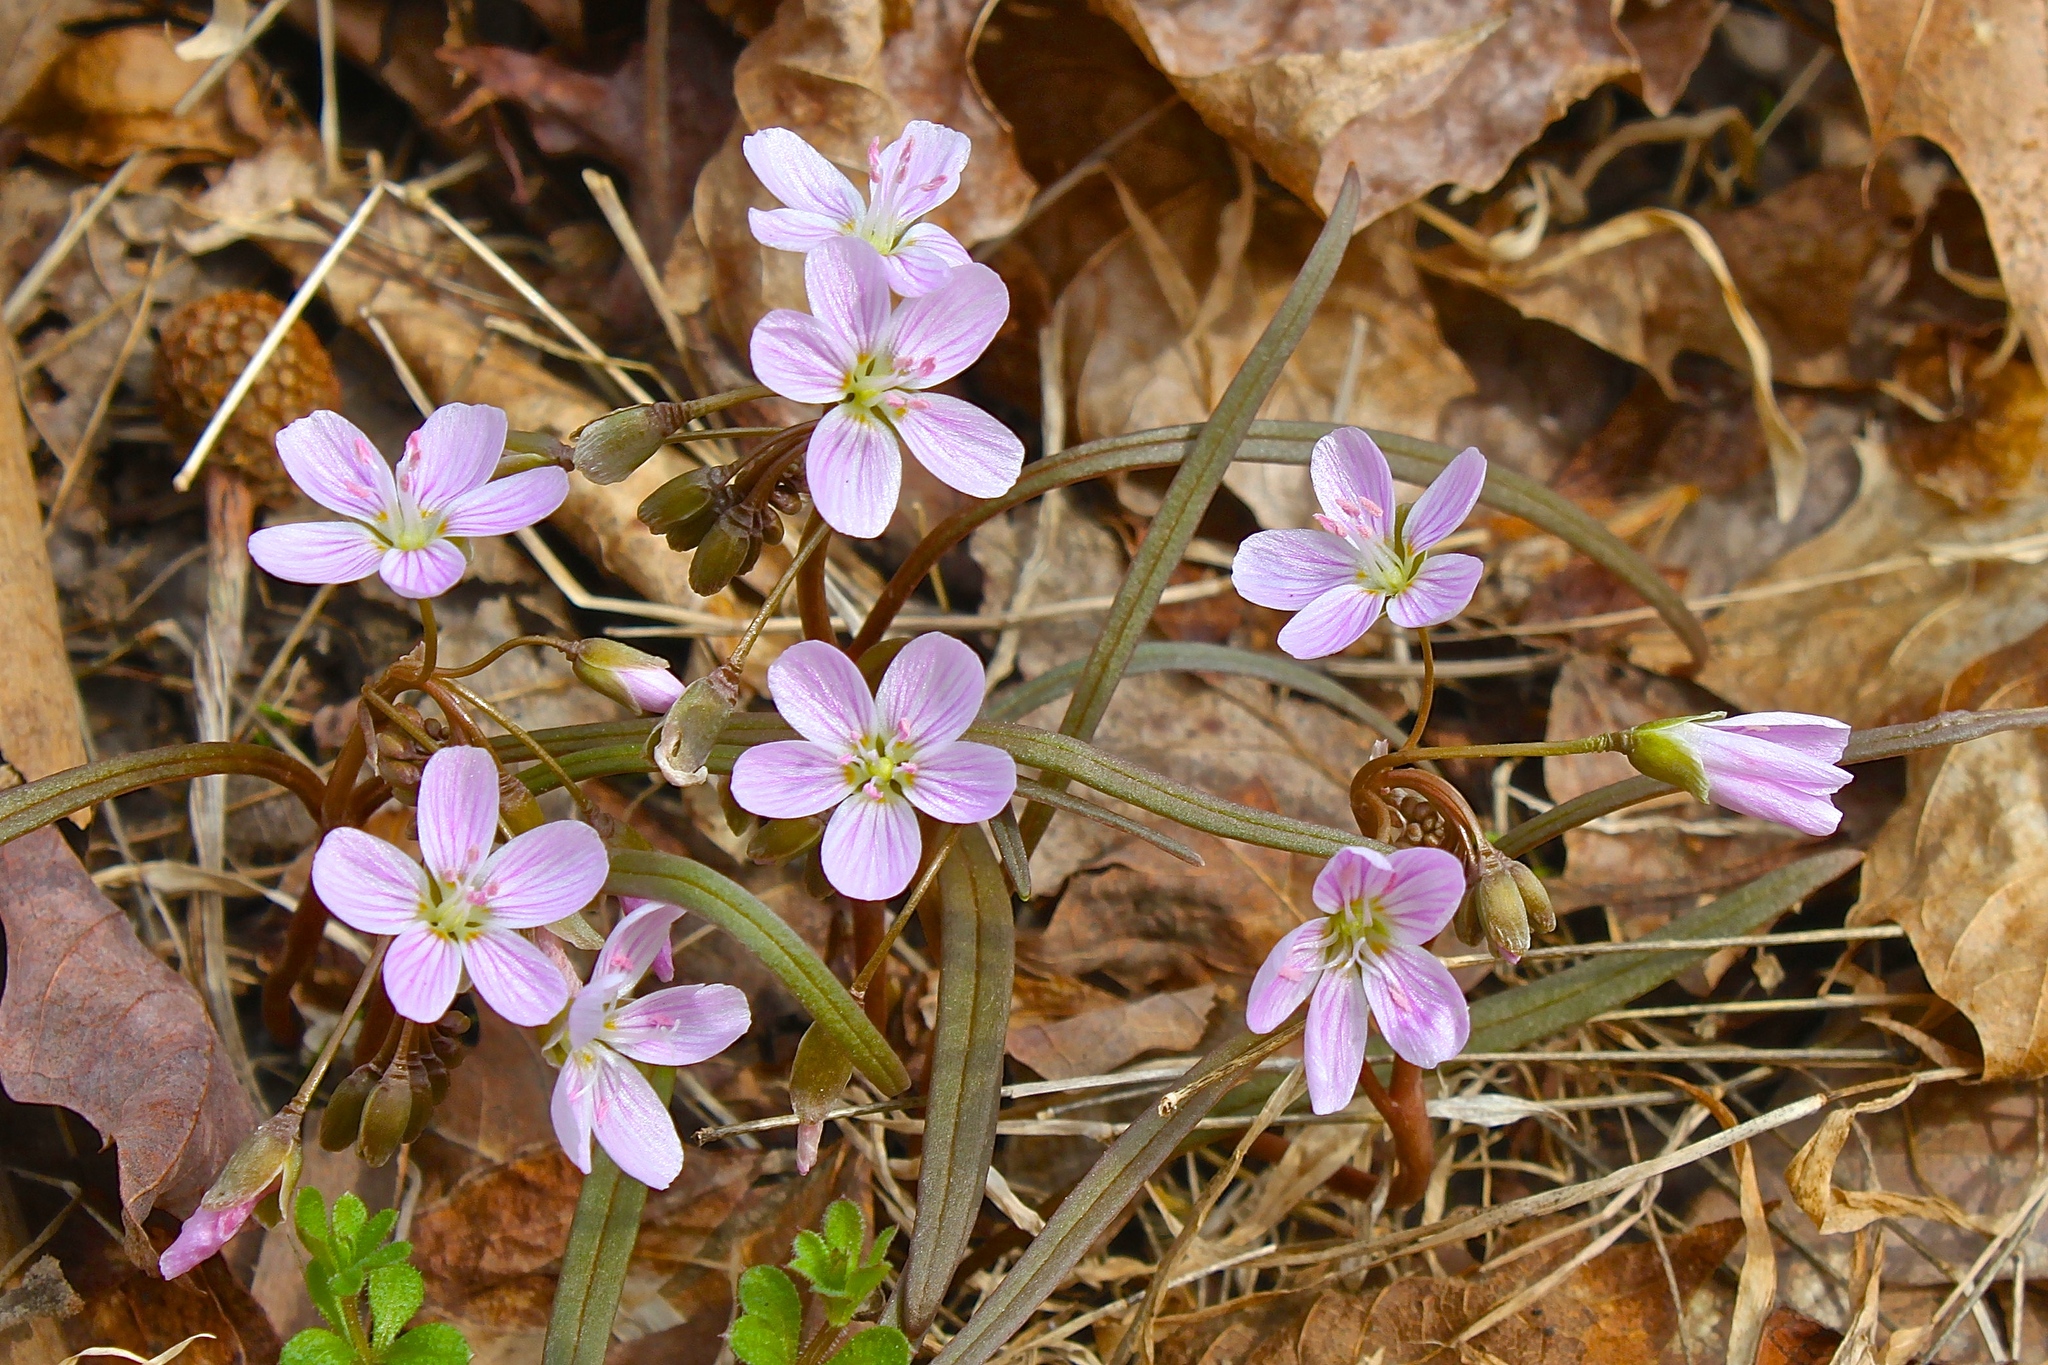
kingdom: Plantae
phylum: Tracheophyta
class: Magnoliopsida
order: Caryophyllales
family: Montiaceae
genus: Claytonia
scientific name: Claytonia virginica
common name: Virginia springbeauty
